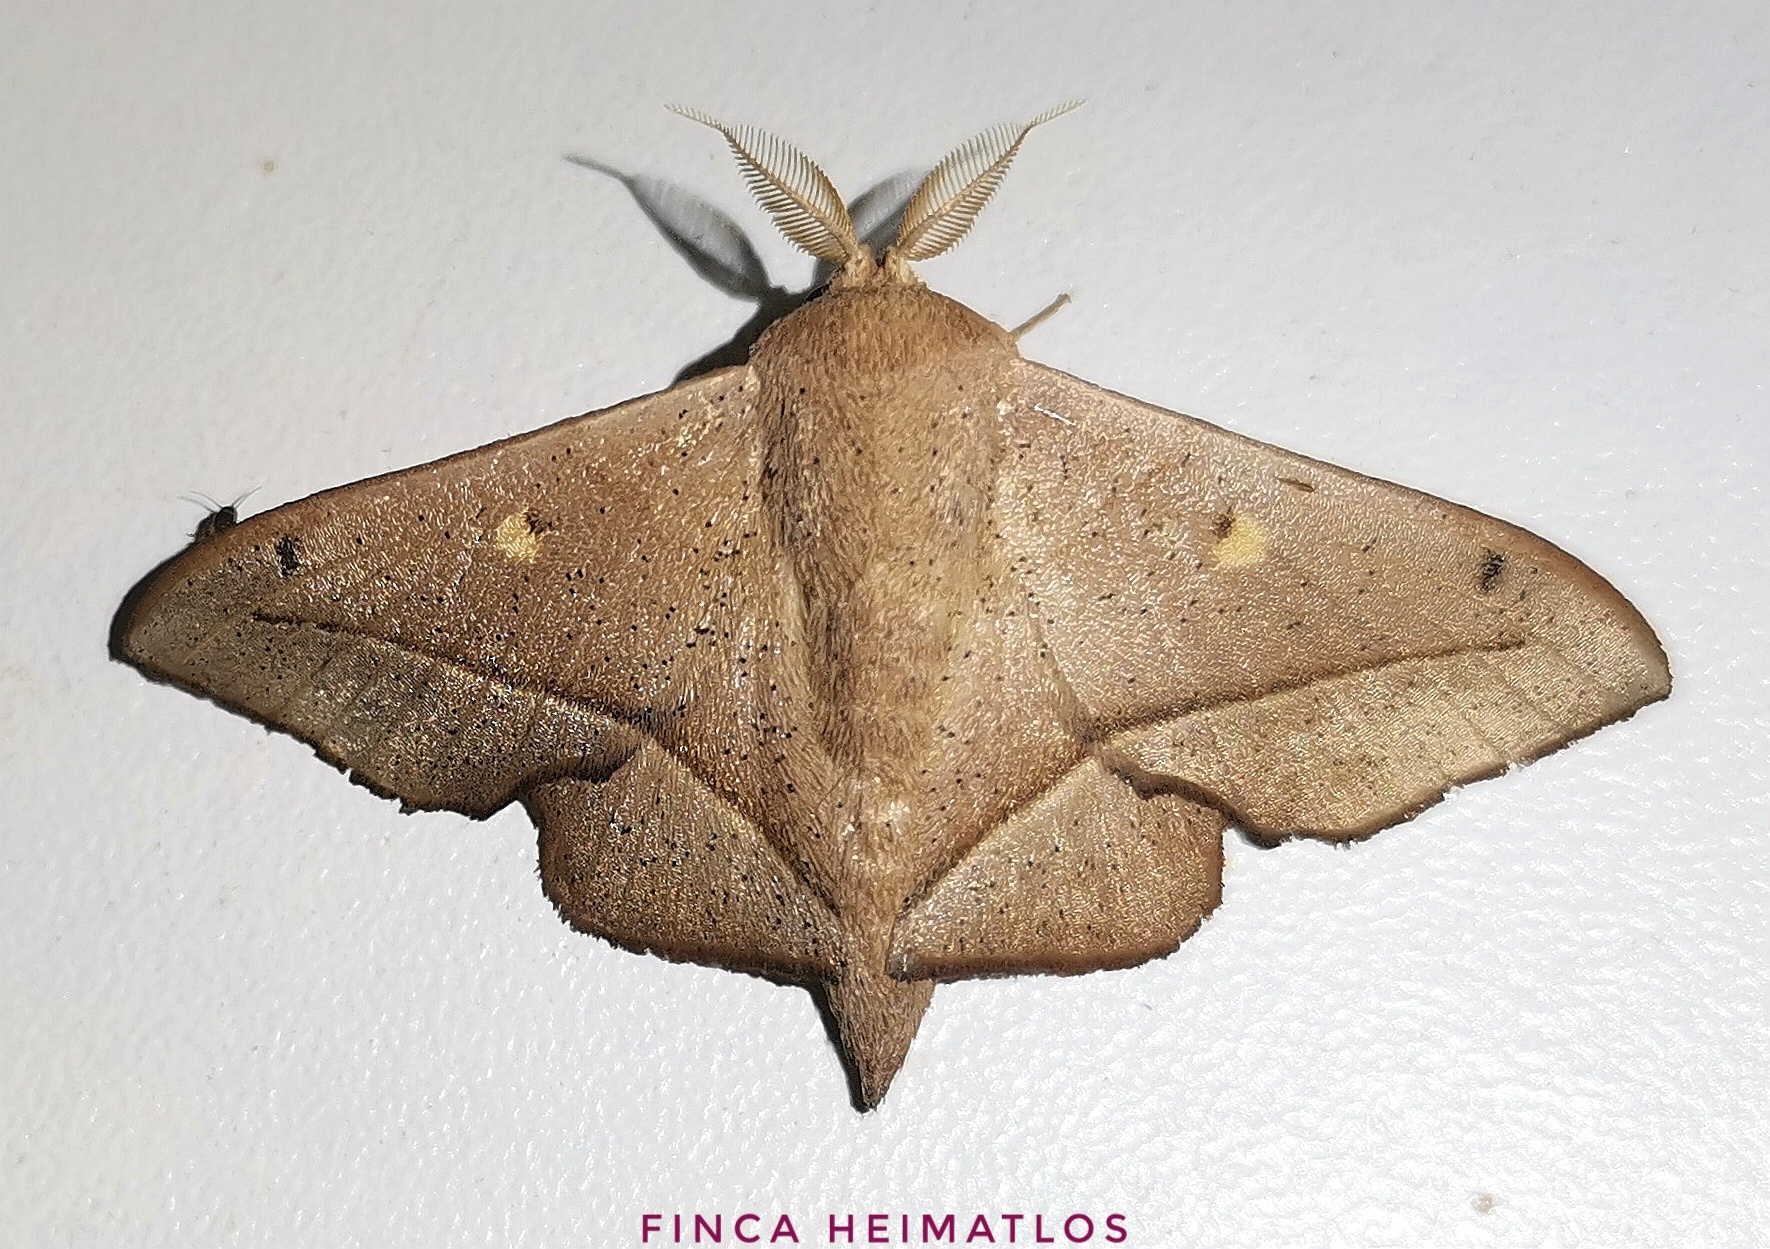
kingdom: Animalia
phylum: Arthropoda
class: Insecta
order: Lepidoptera
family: Mimallonidae
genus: Druentica
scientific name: Druentica partha
